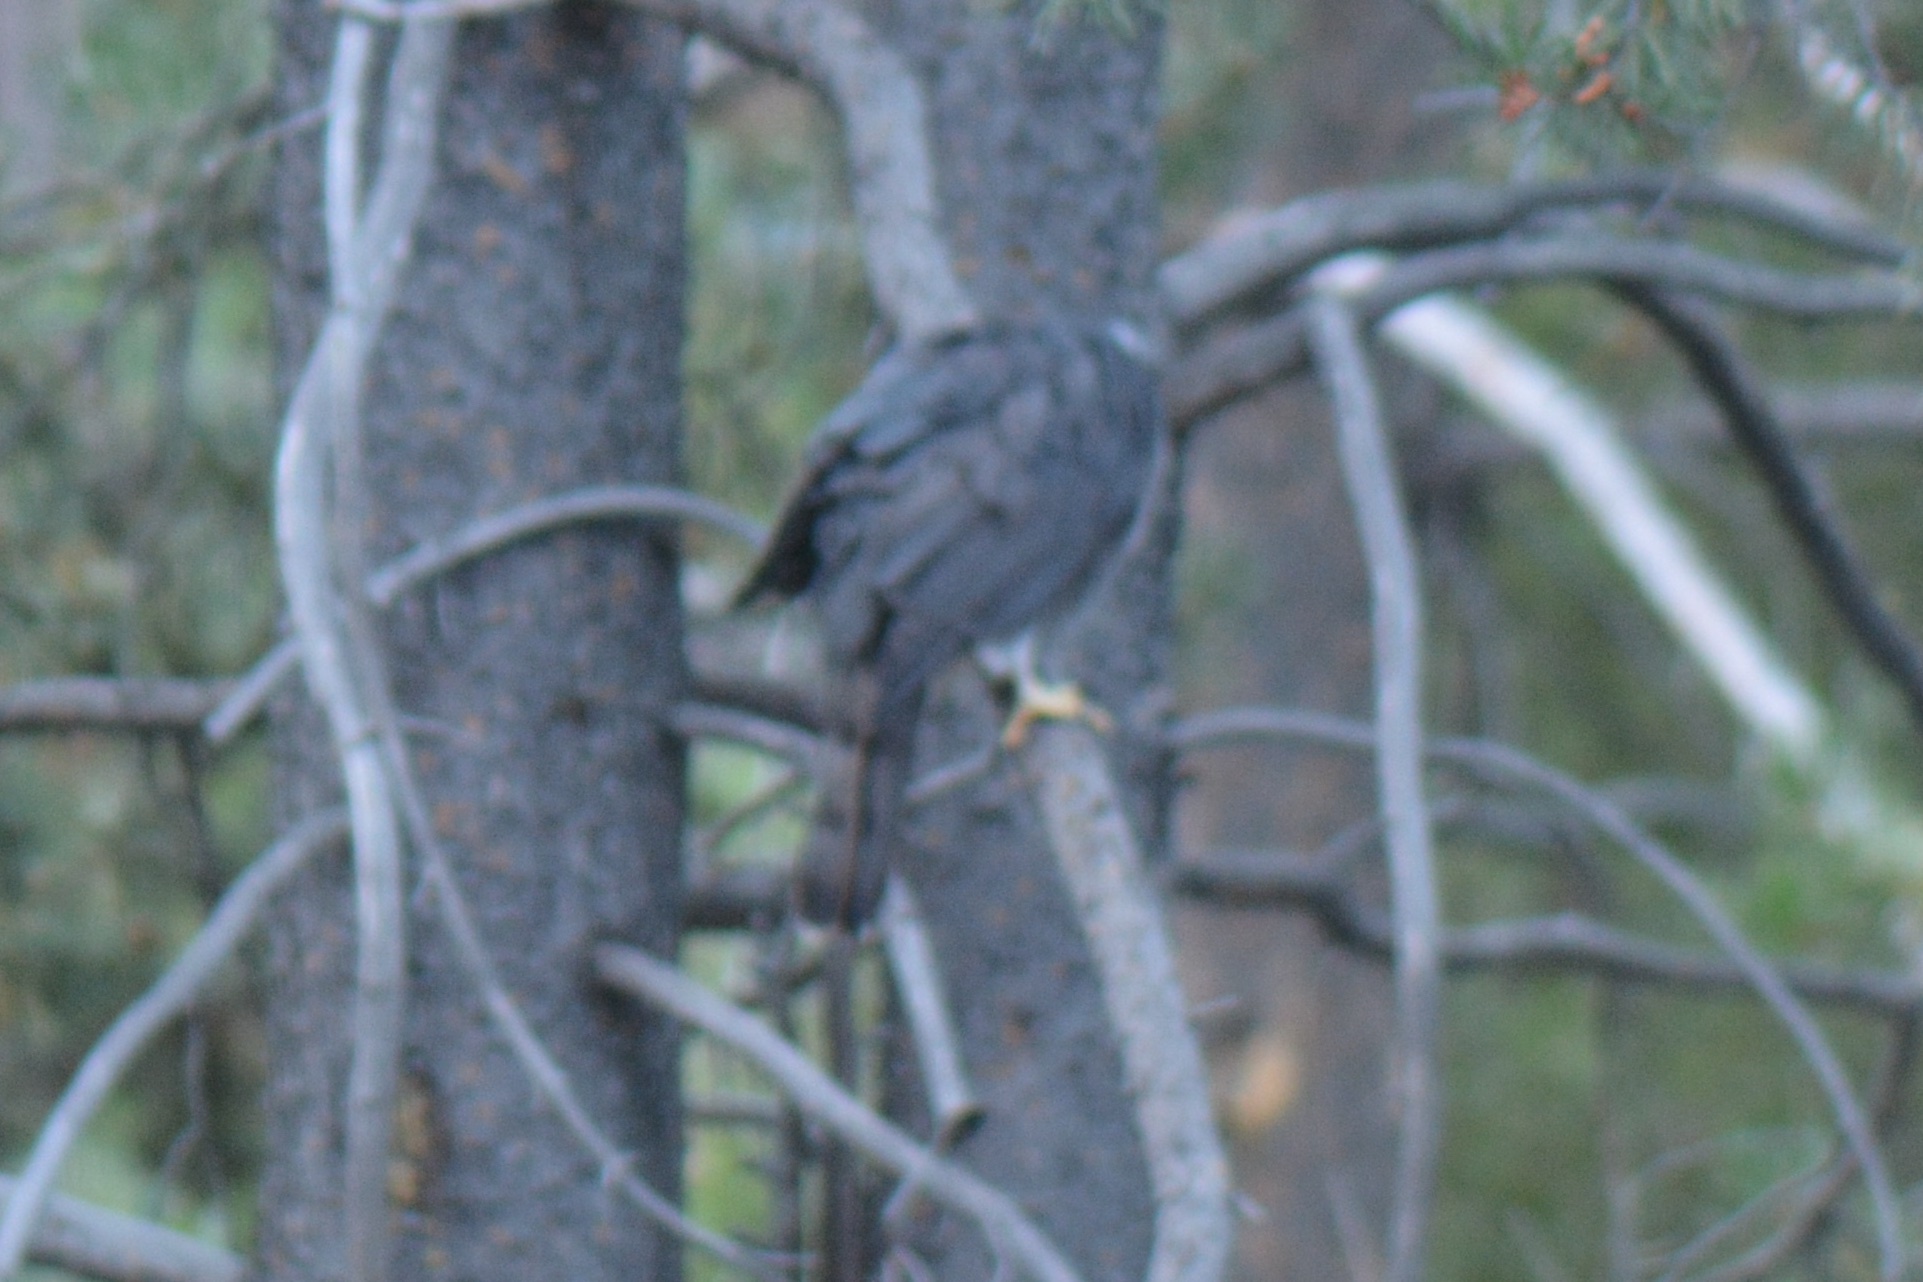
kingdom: Animalia
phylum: Chordata
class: Aves
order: Accipitriformes
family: Accipitridae
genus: Accipiter
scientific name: Accipiter gentilis
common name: Northern goshawk
